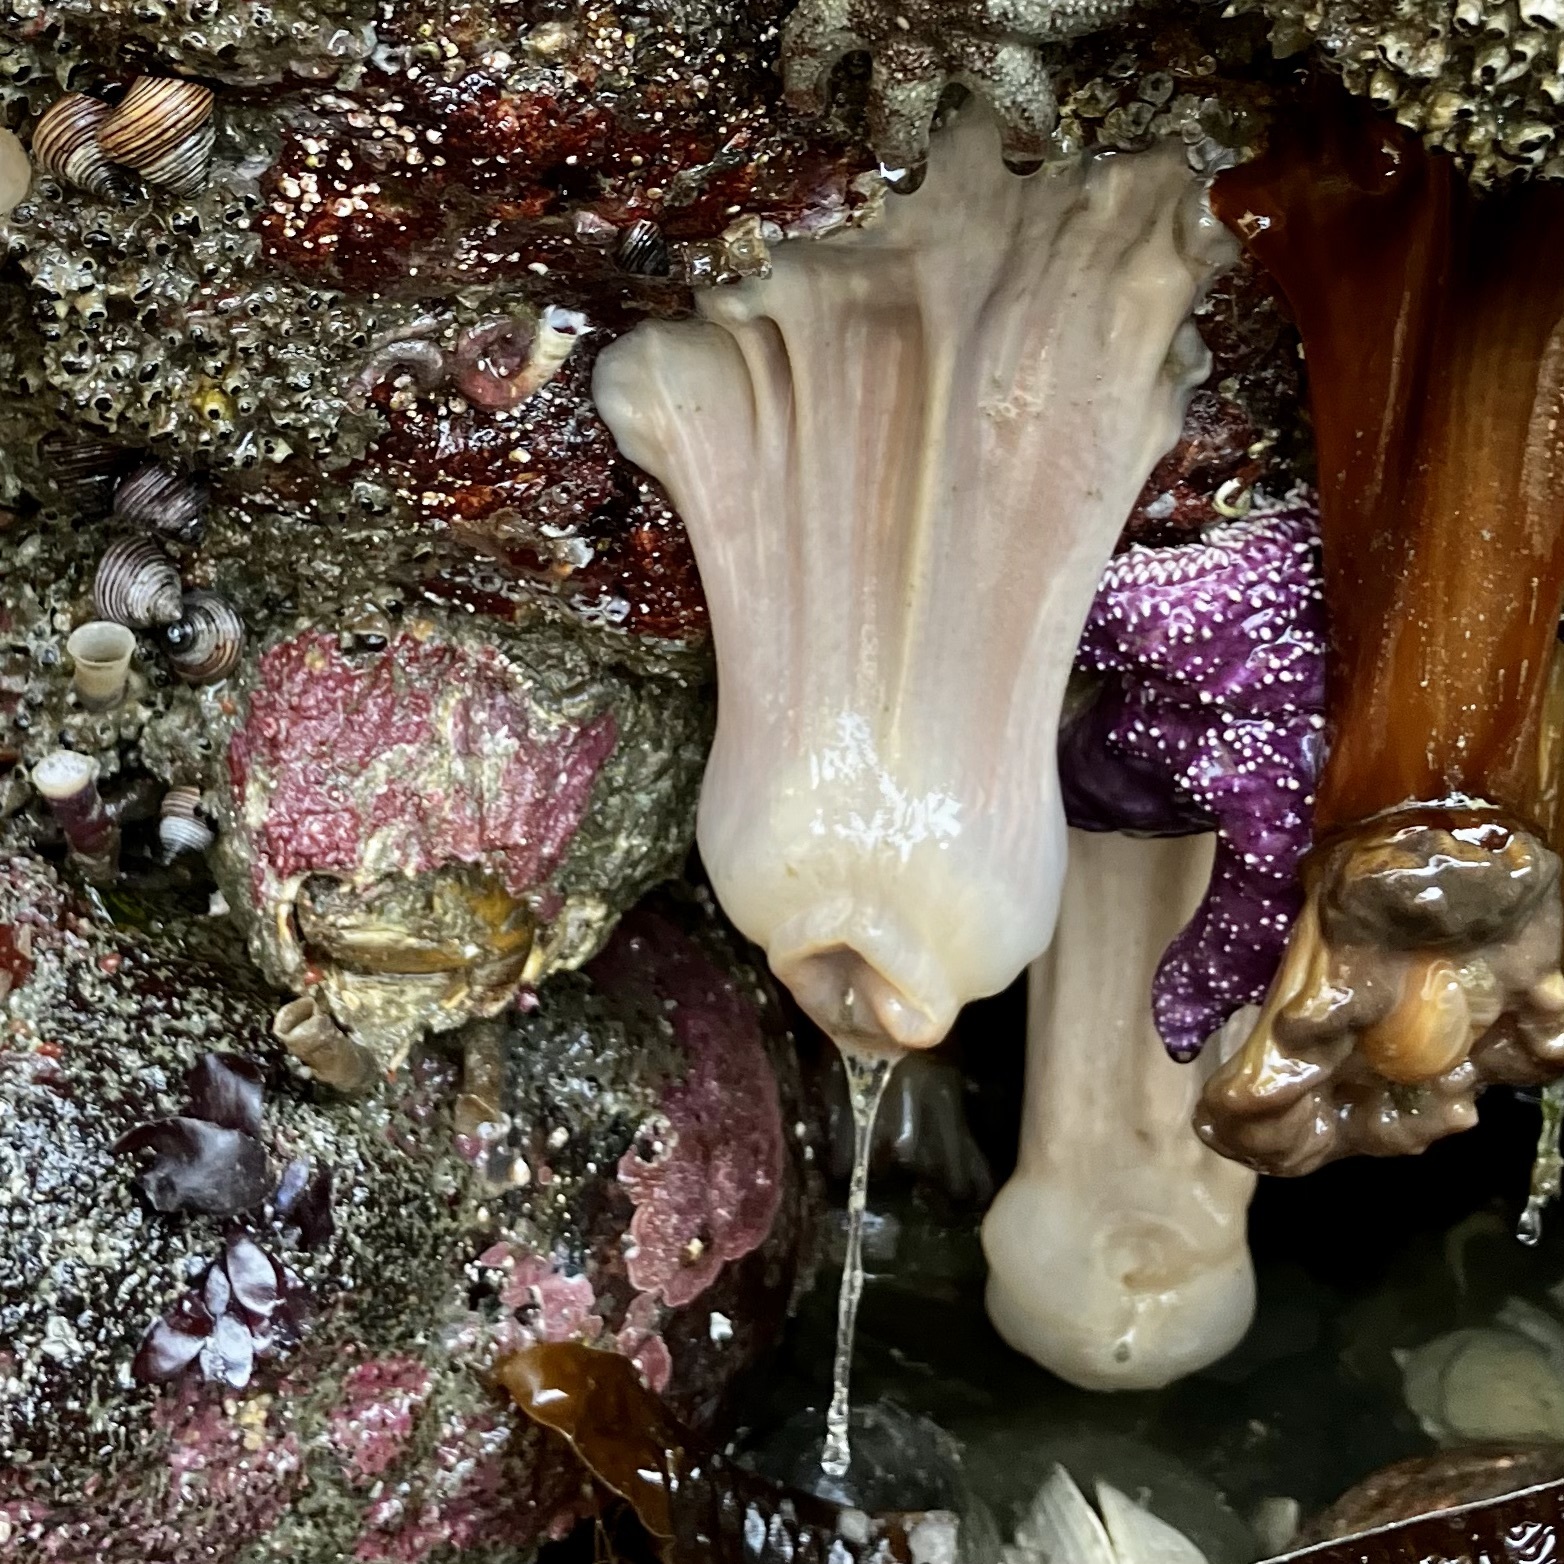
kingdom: Animalia
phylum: Echinodermata
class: Asteroidea
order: Forcipulatida
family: Asteriidae
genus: Pisaster
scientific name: Pisaster ochraceus
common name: Ochre stars
